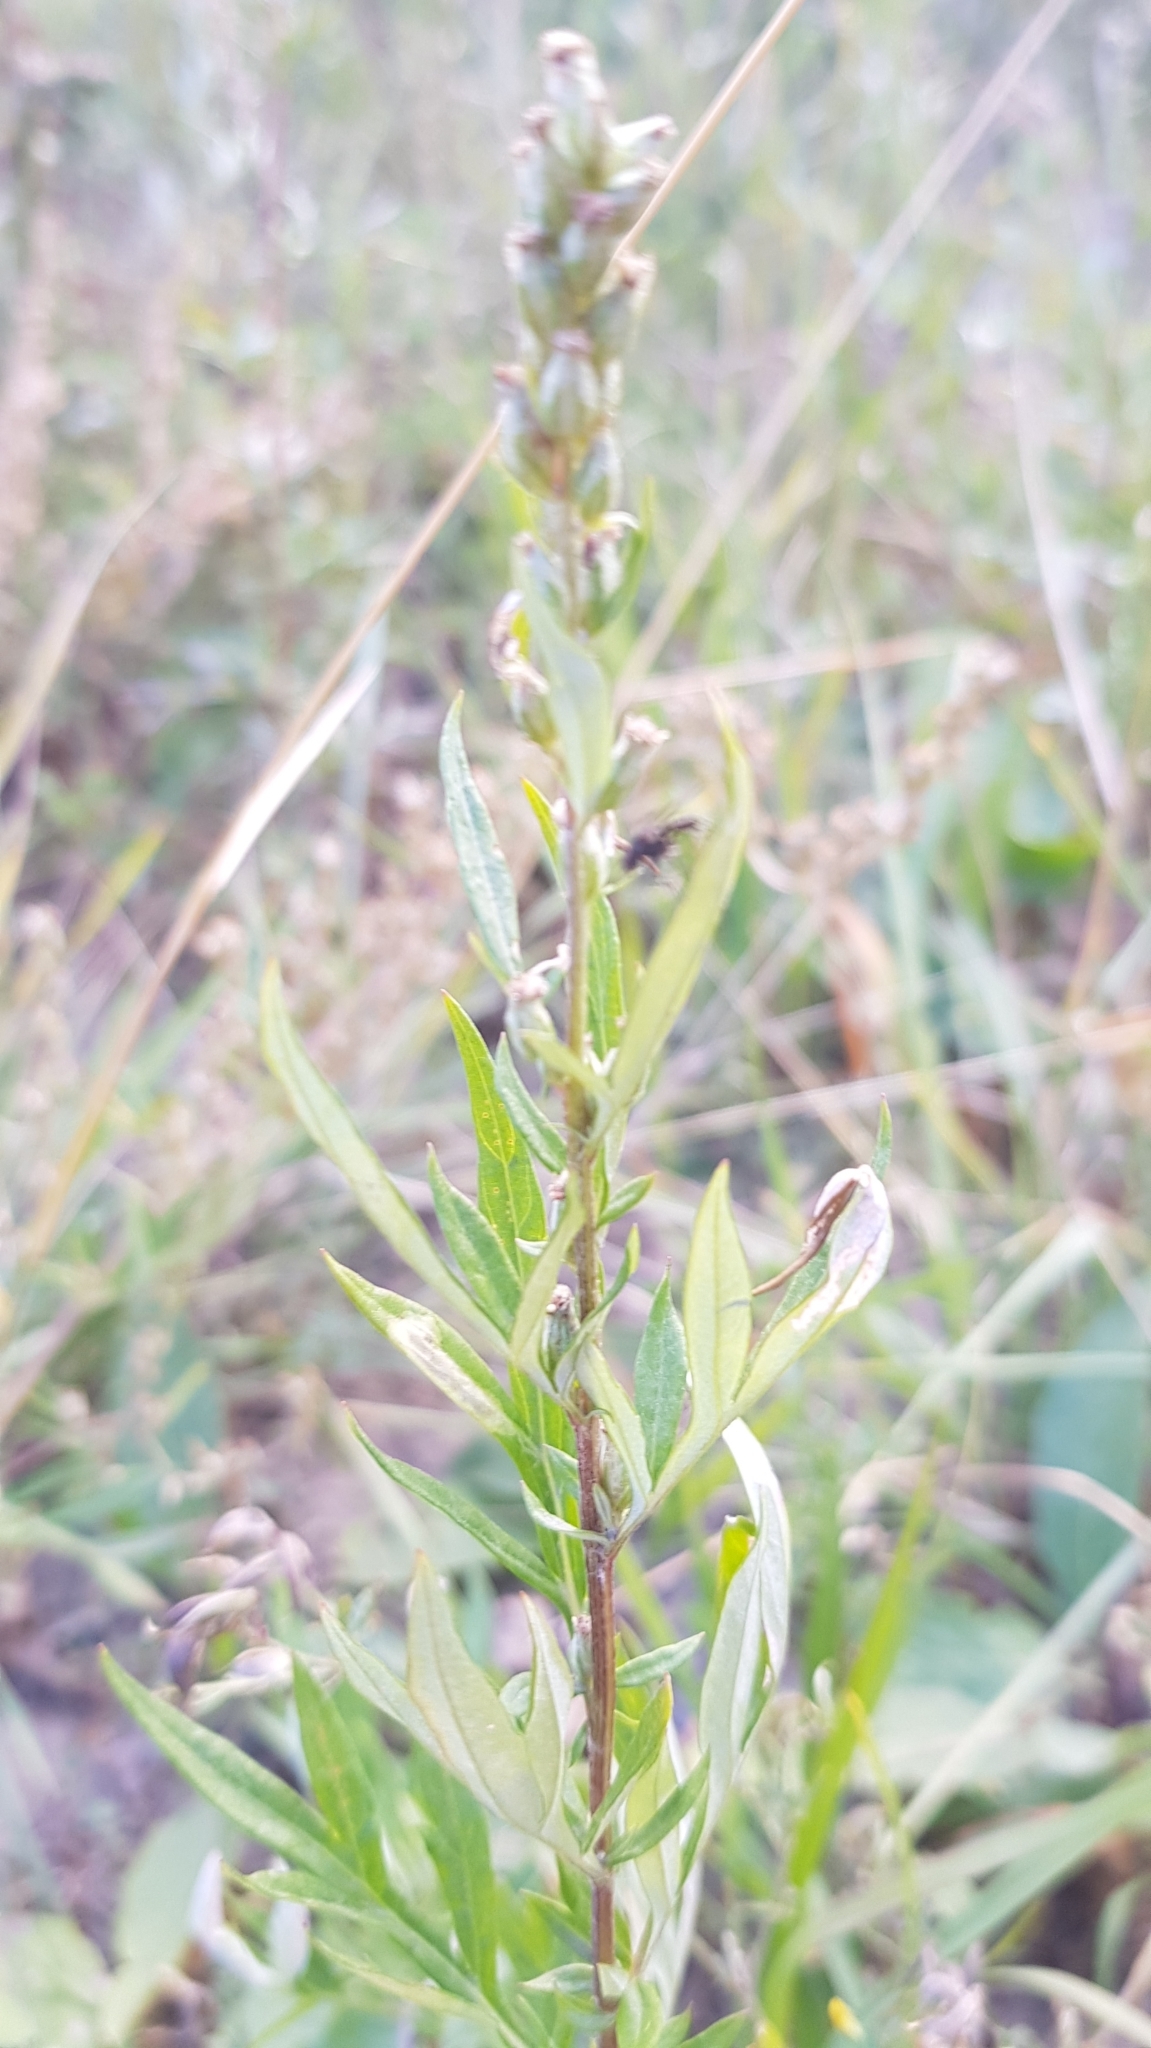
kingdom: Plantae
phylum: Tracheophyta
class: Magnoliopsida
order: Asterales
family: Asteraceae
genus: Artemisia
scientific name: Artemisia vulgaris
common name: Mugwort
